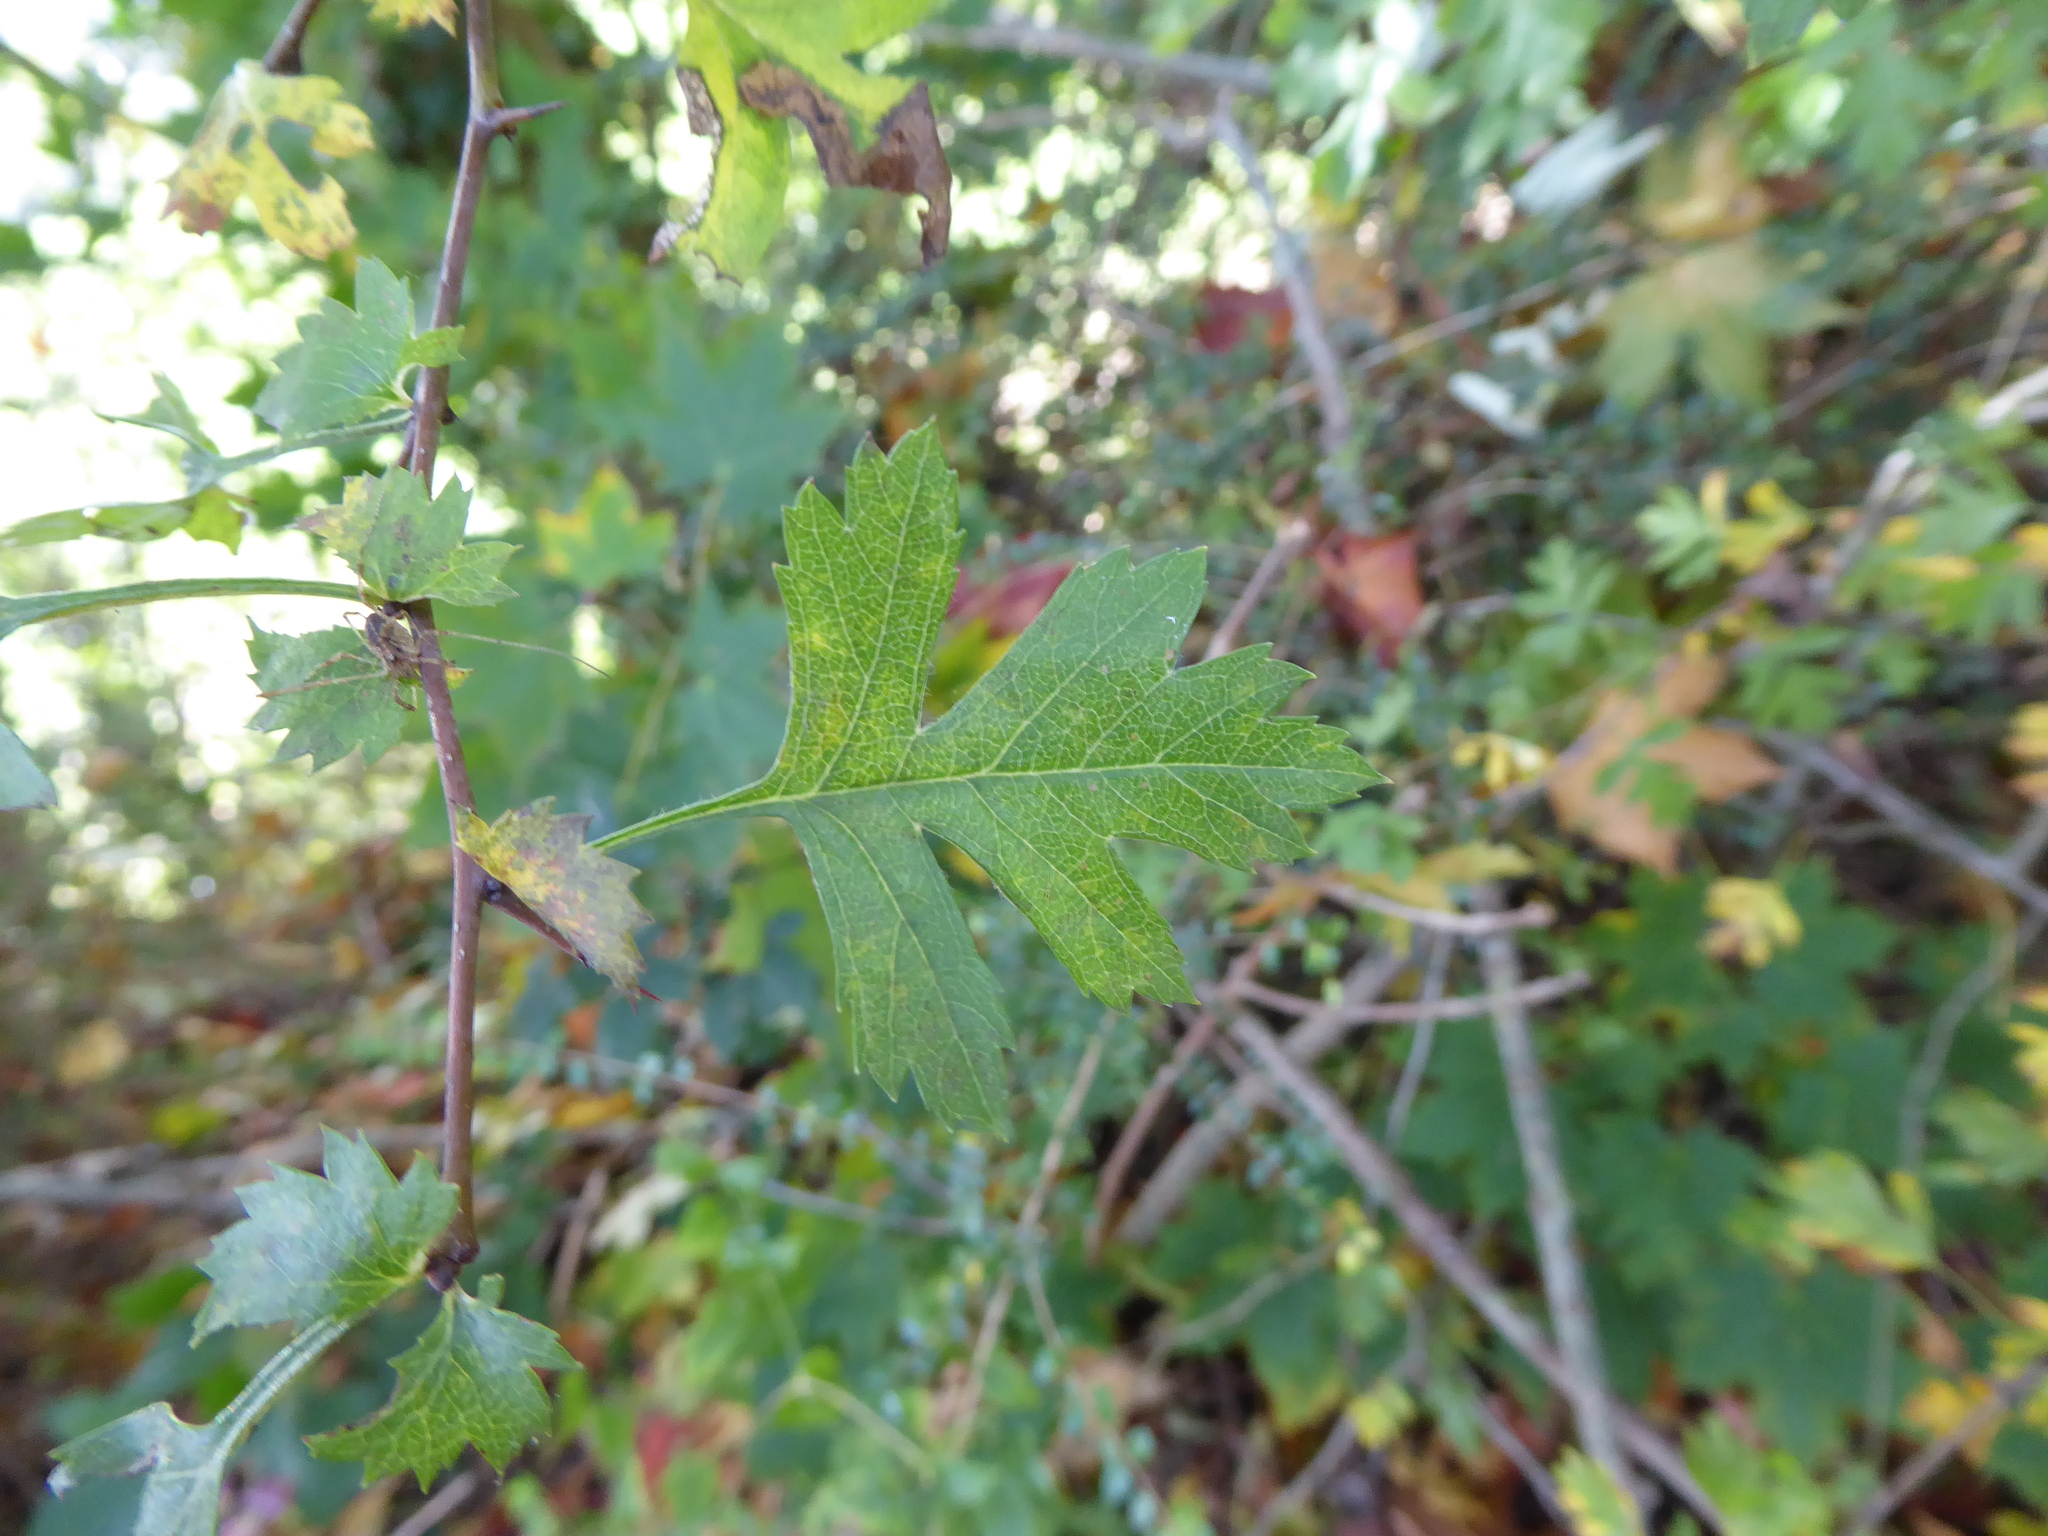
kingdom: Plantae
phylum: Tracheophyta
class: Magnoliopsida
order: Rosales
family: Rosaceae
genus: Crataegus
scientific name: Crataegus monogyna
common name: Hawthorn
